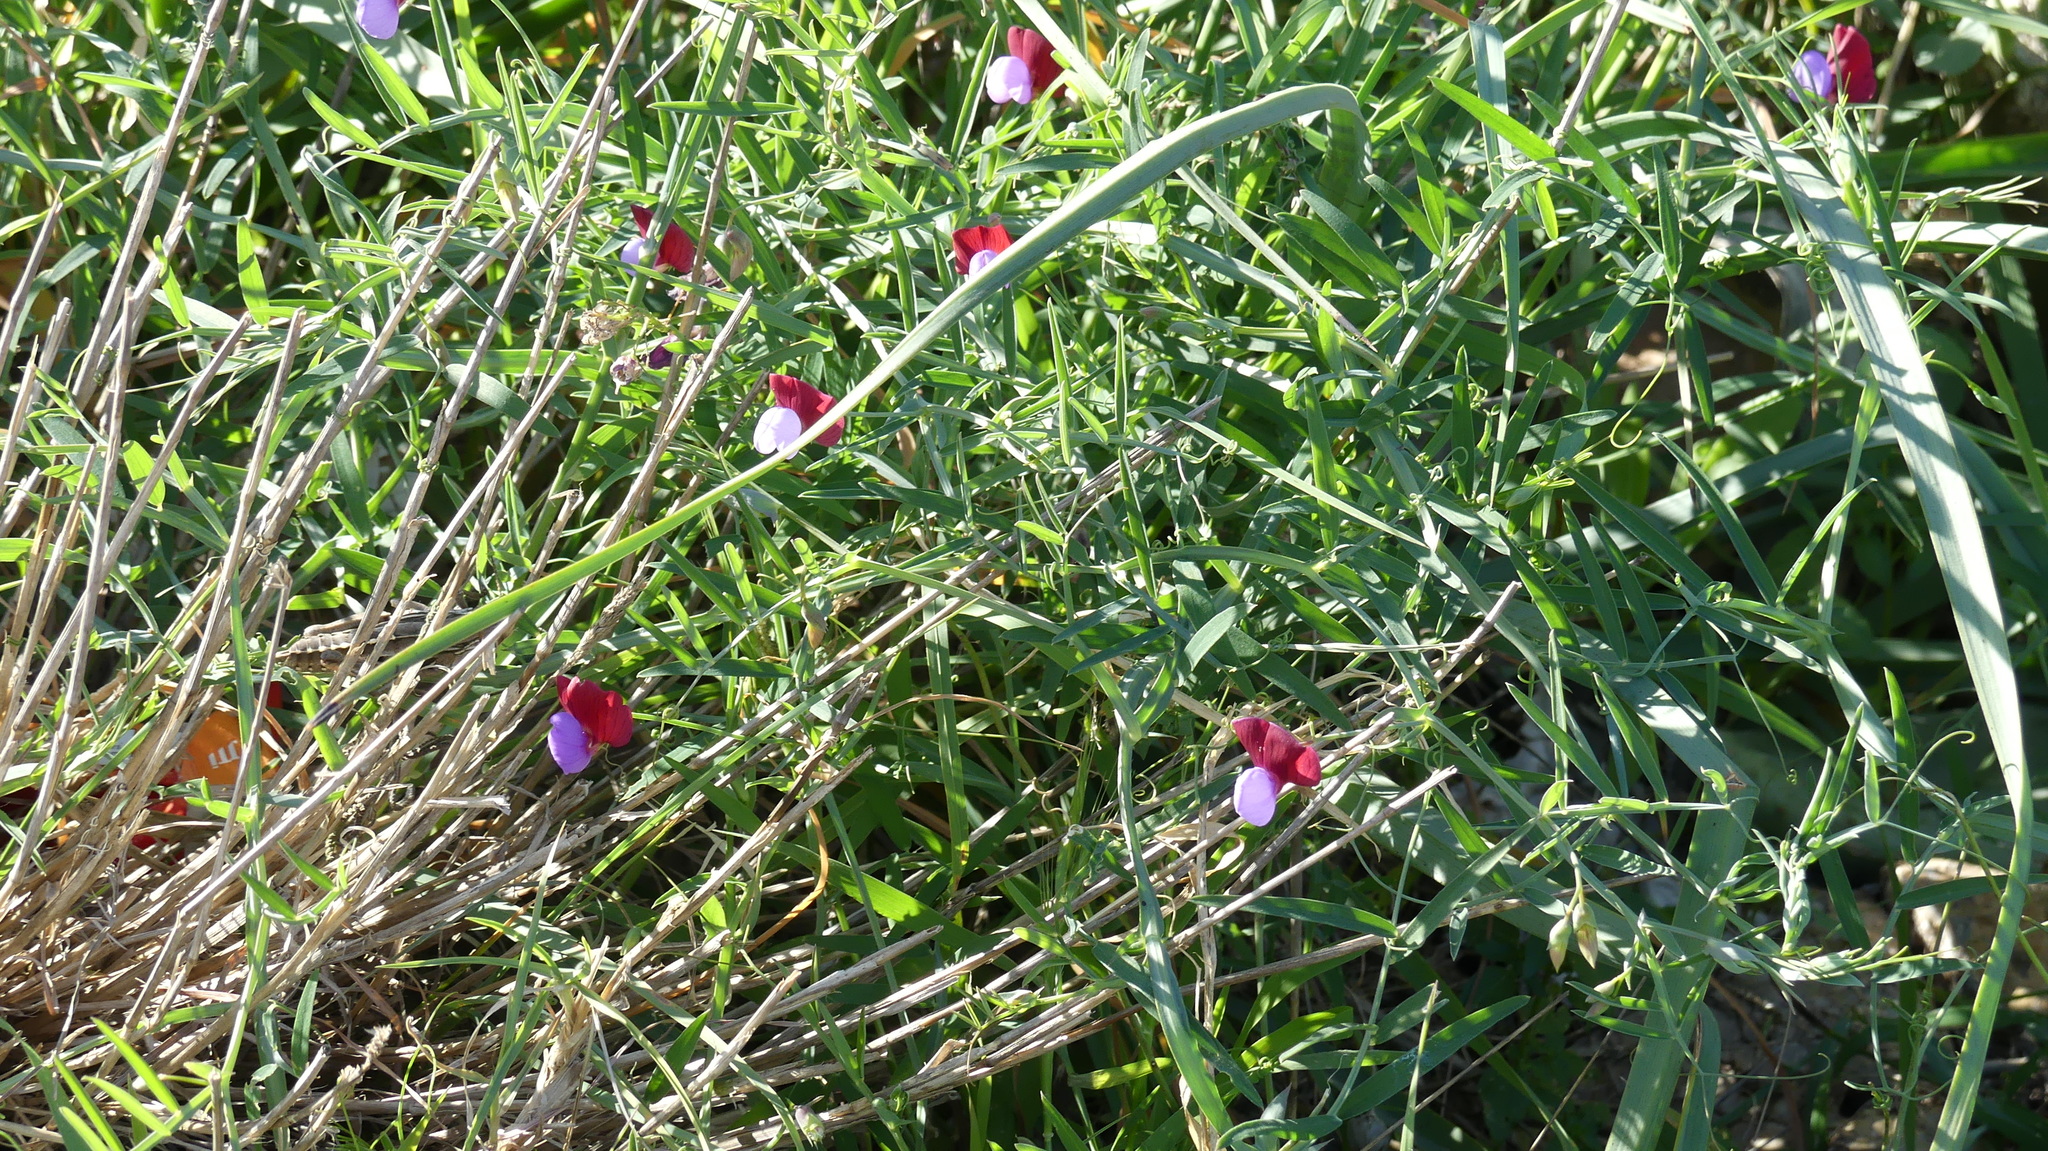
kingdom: Plantae
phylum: Tracheophyta
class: Magnoliopsida
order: Fabales
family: Fabaceae
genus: Lathyrus
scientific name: Lathyrus clymenum
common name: Spanish vetchling
